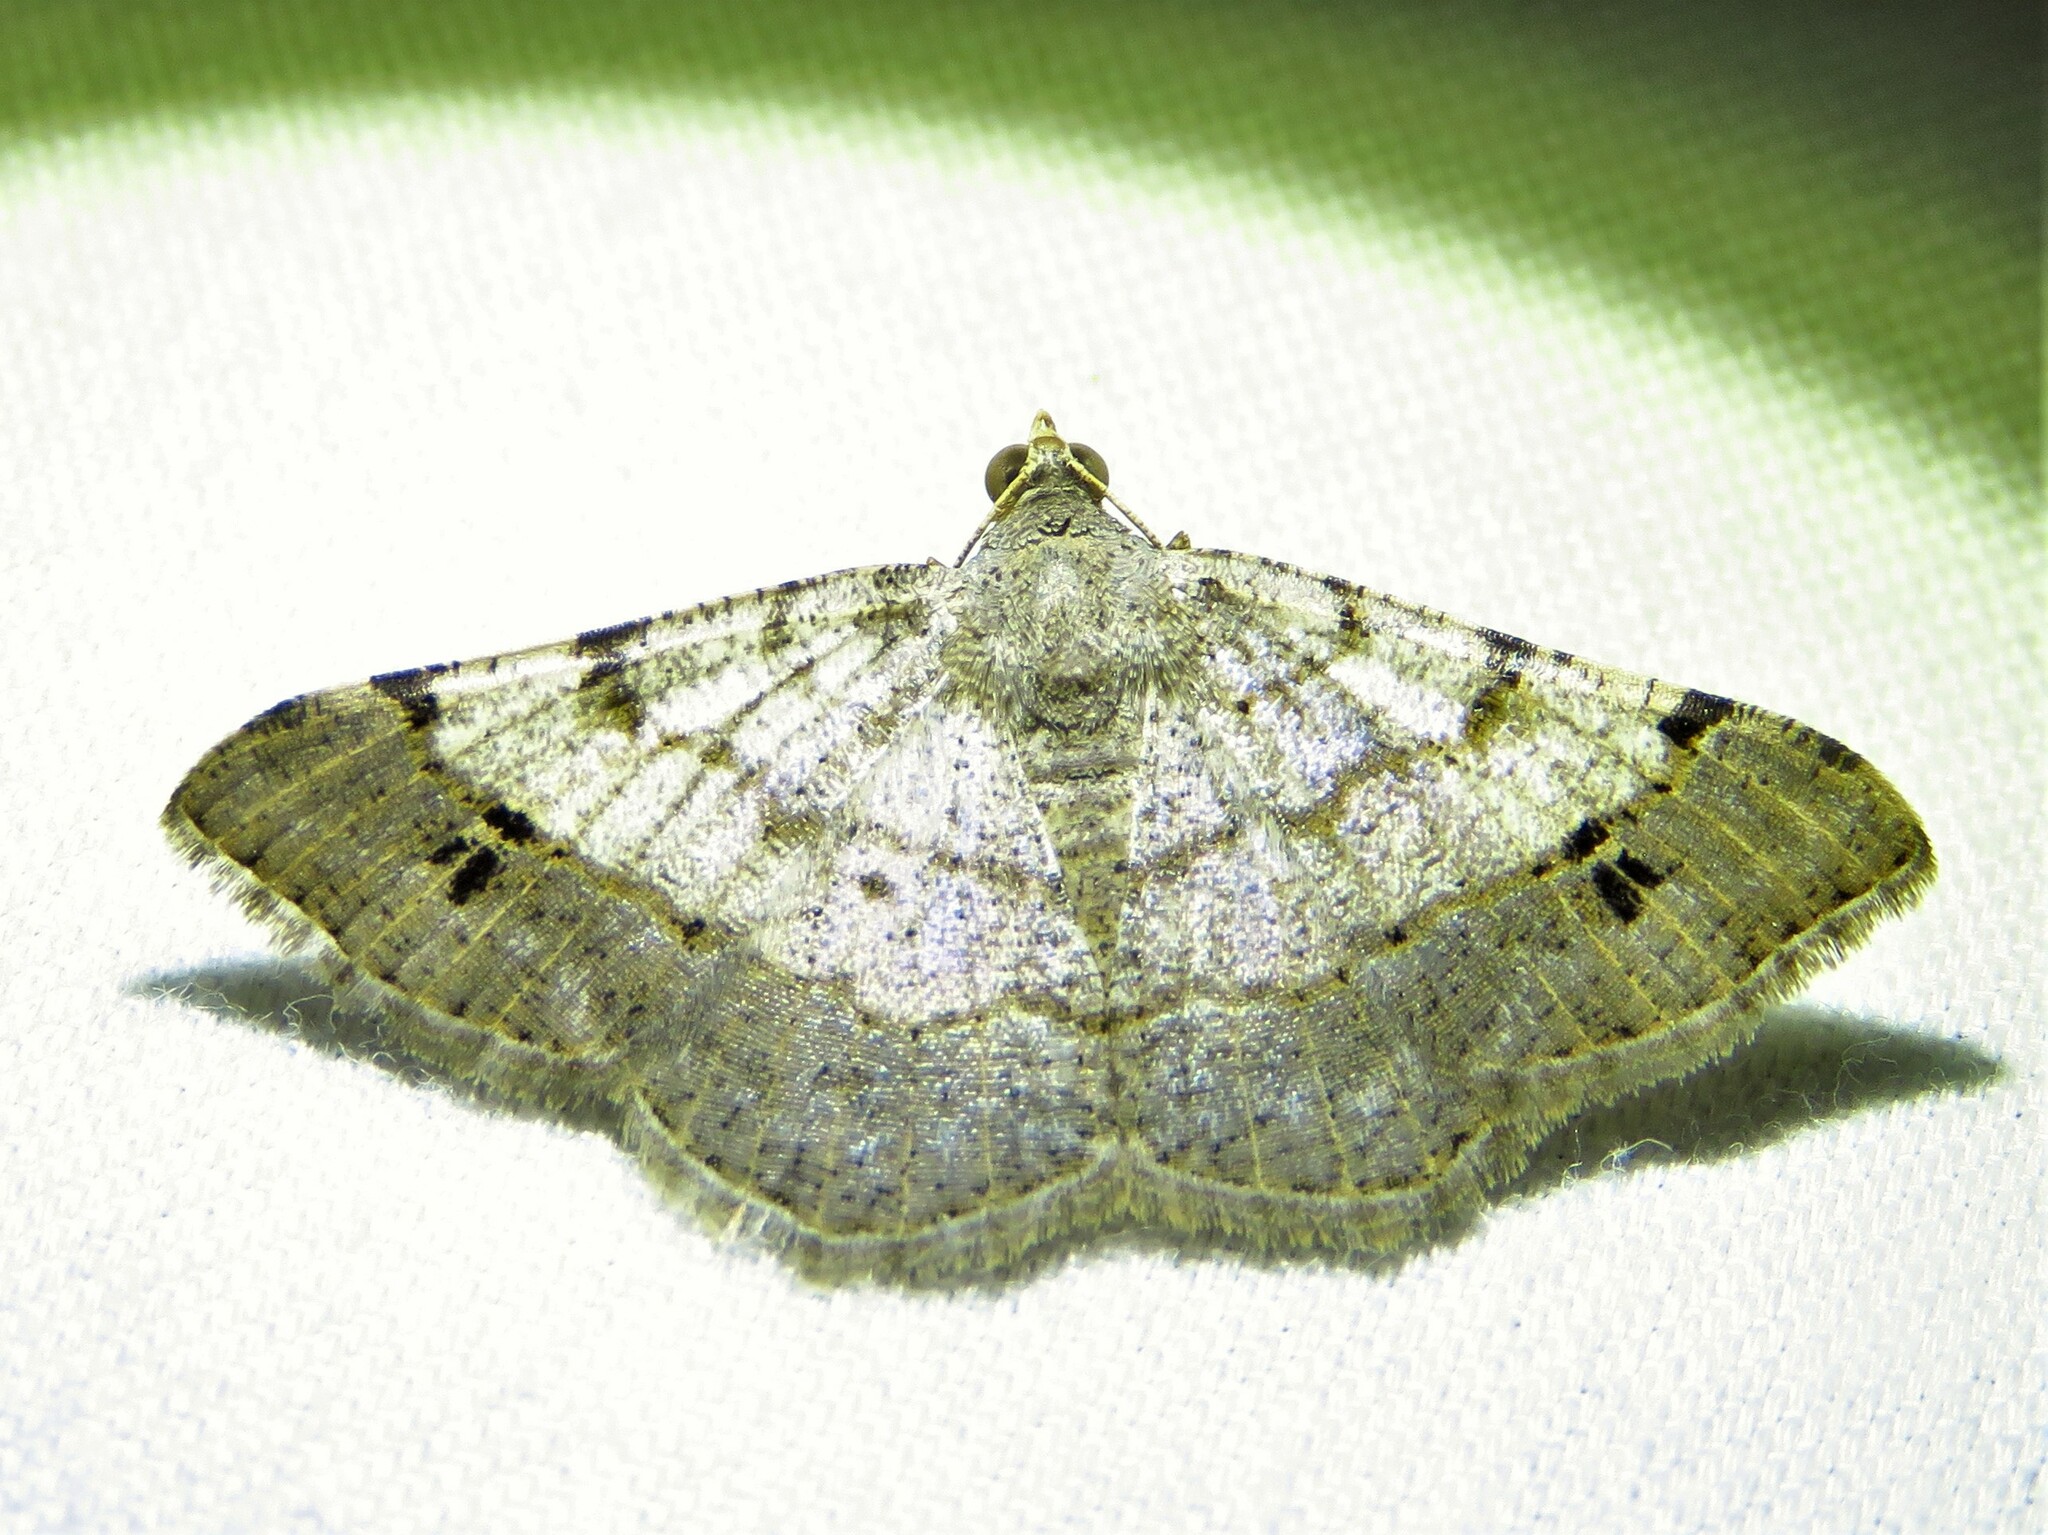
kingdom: Animalia
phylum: Arthropoda
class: Insecta
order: Lepidoptera
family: Geometridae
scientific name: Geometridae
